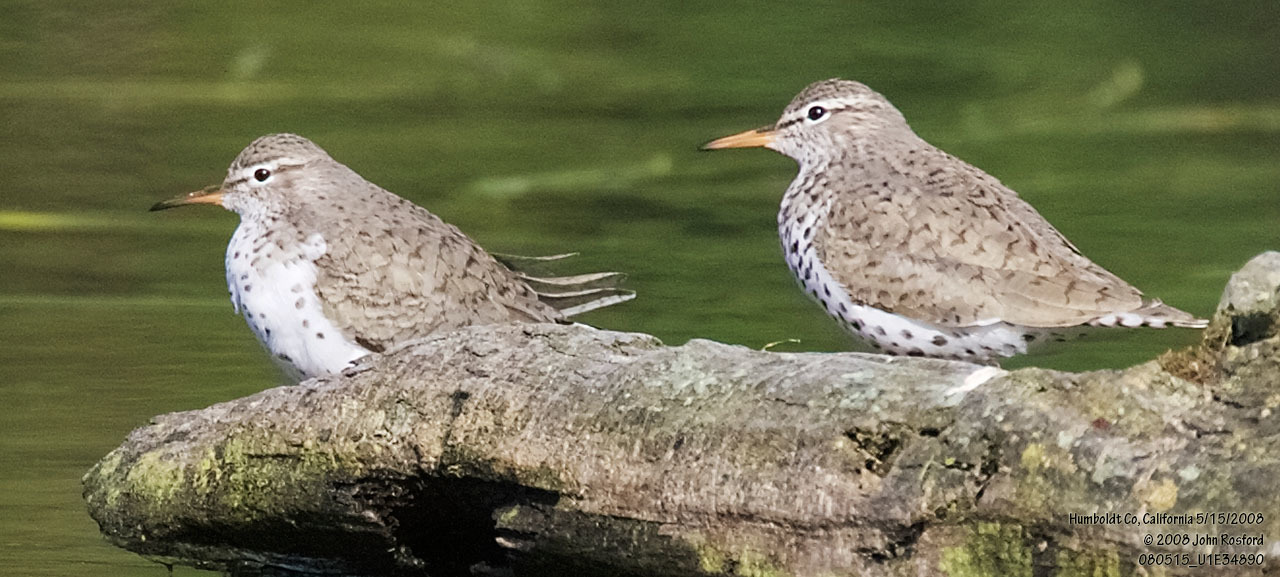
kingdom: Animalia
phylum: Chordata
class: Aves
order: Charadriiformes
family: Scolopacidae
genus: Actitis
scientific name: Actitis macularius
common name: Spotted sandpiper
